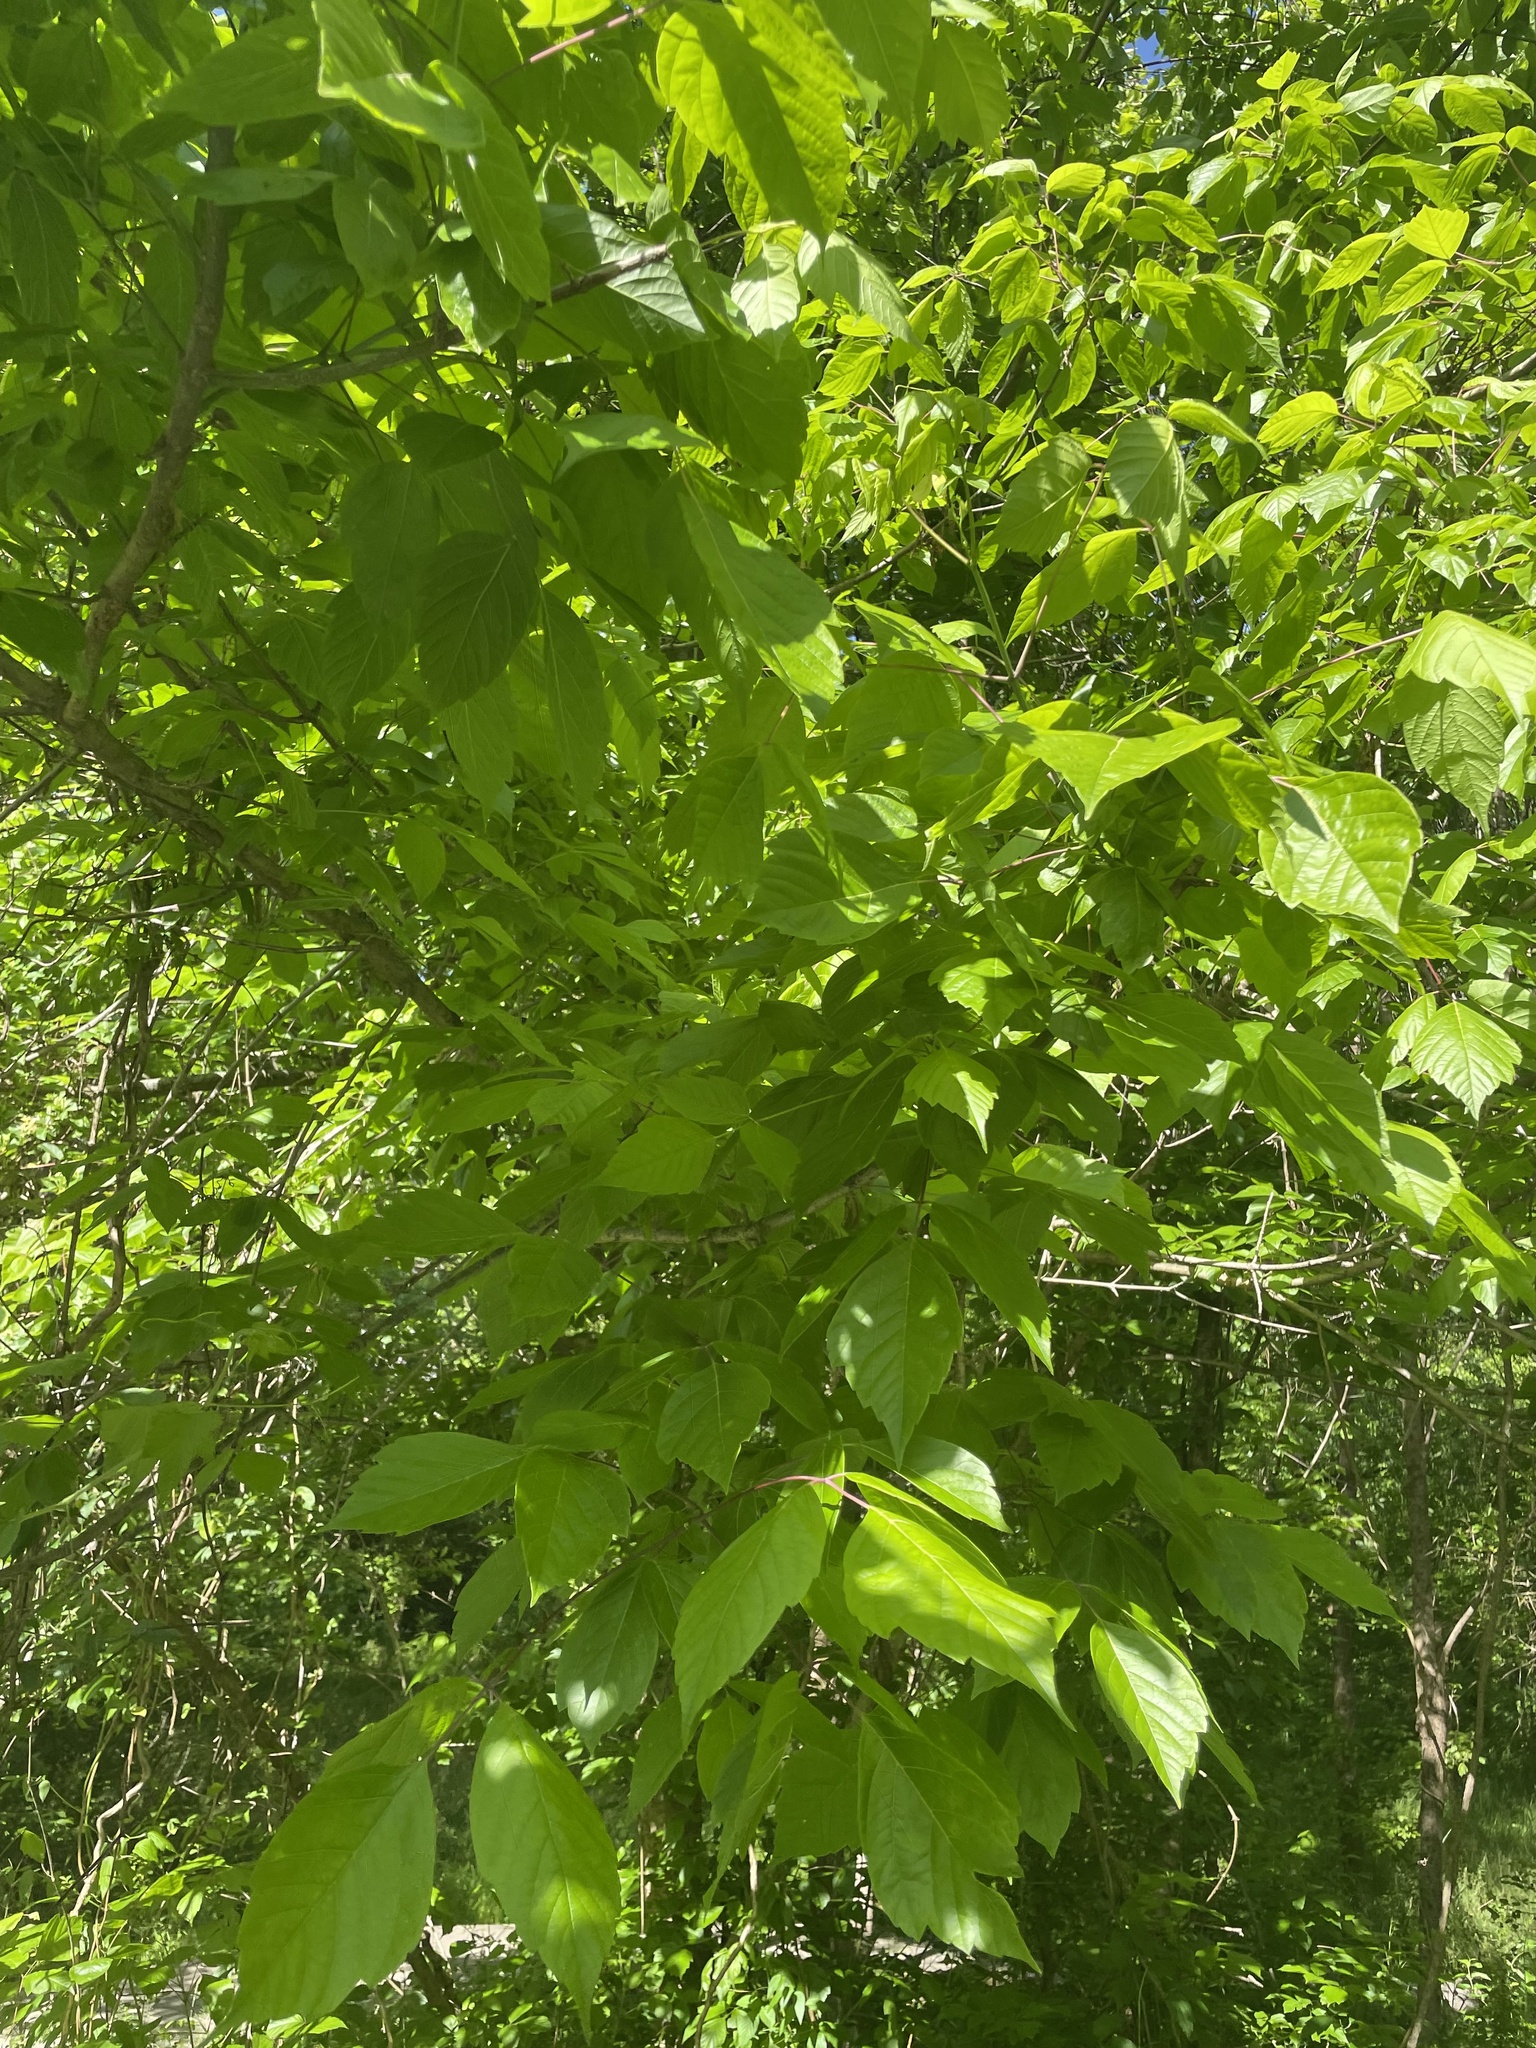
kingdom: Plantae
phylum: Tracheophyta
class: Magnoliopsida
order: Sapindales
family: Sapindaceae
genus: Acer
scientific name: Acer negundo
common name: Ashleaf maple
